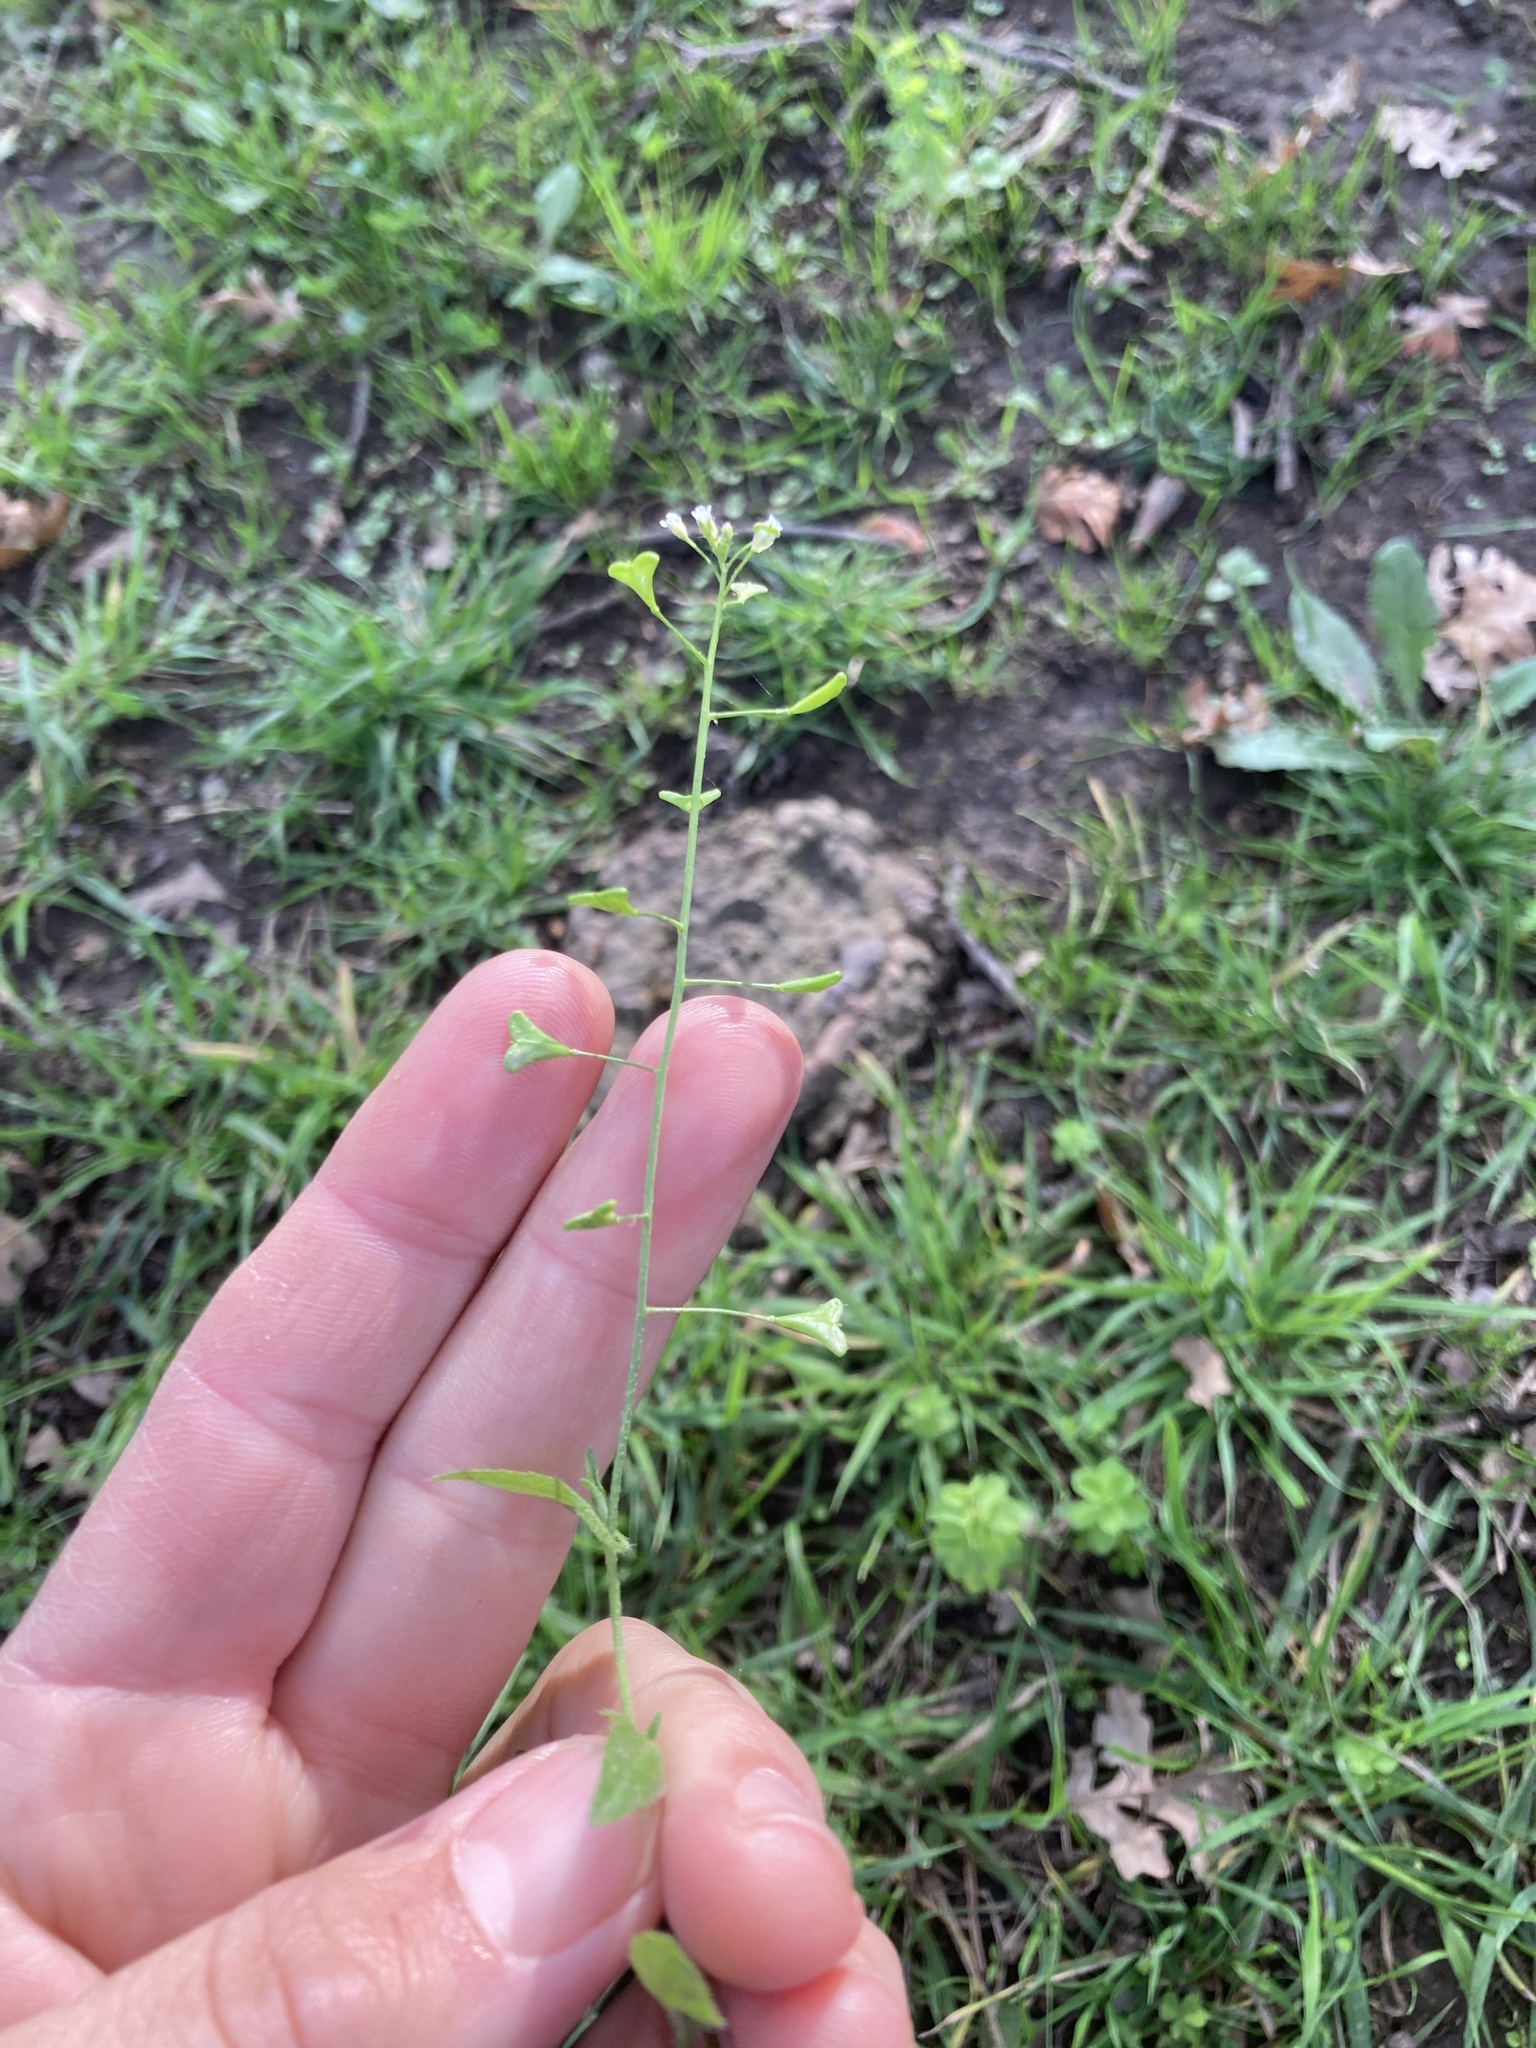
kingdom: Plantae
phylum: Tracheophyta
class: Magnoliopsida
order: Brassicales
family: Brassicaceae
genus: Capsella
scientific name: Capsella bursa-pastoris
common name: Shepherd's purse
